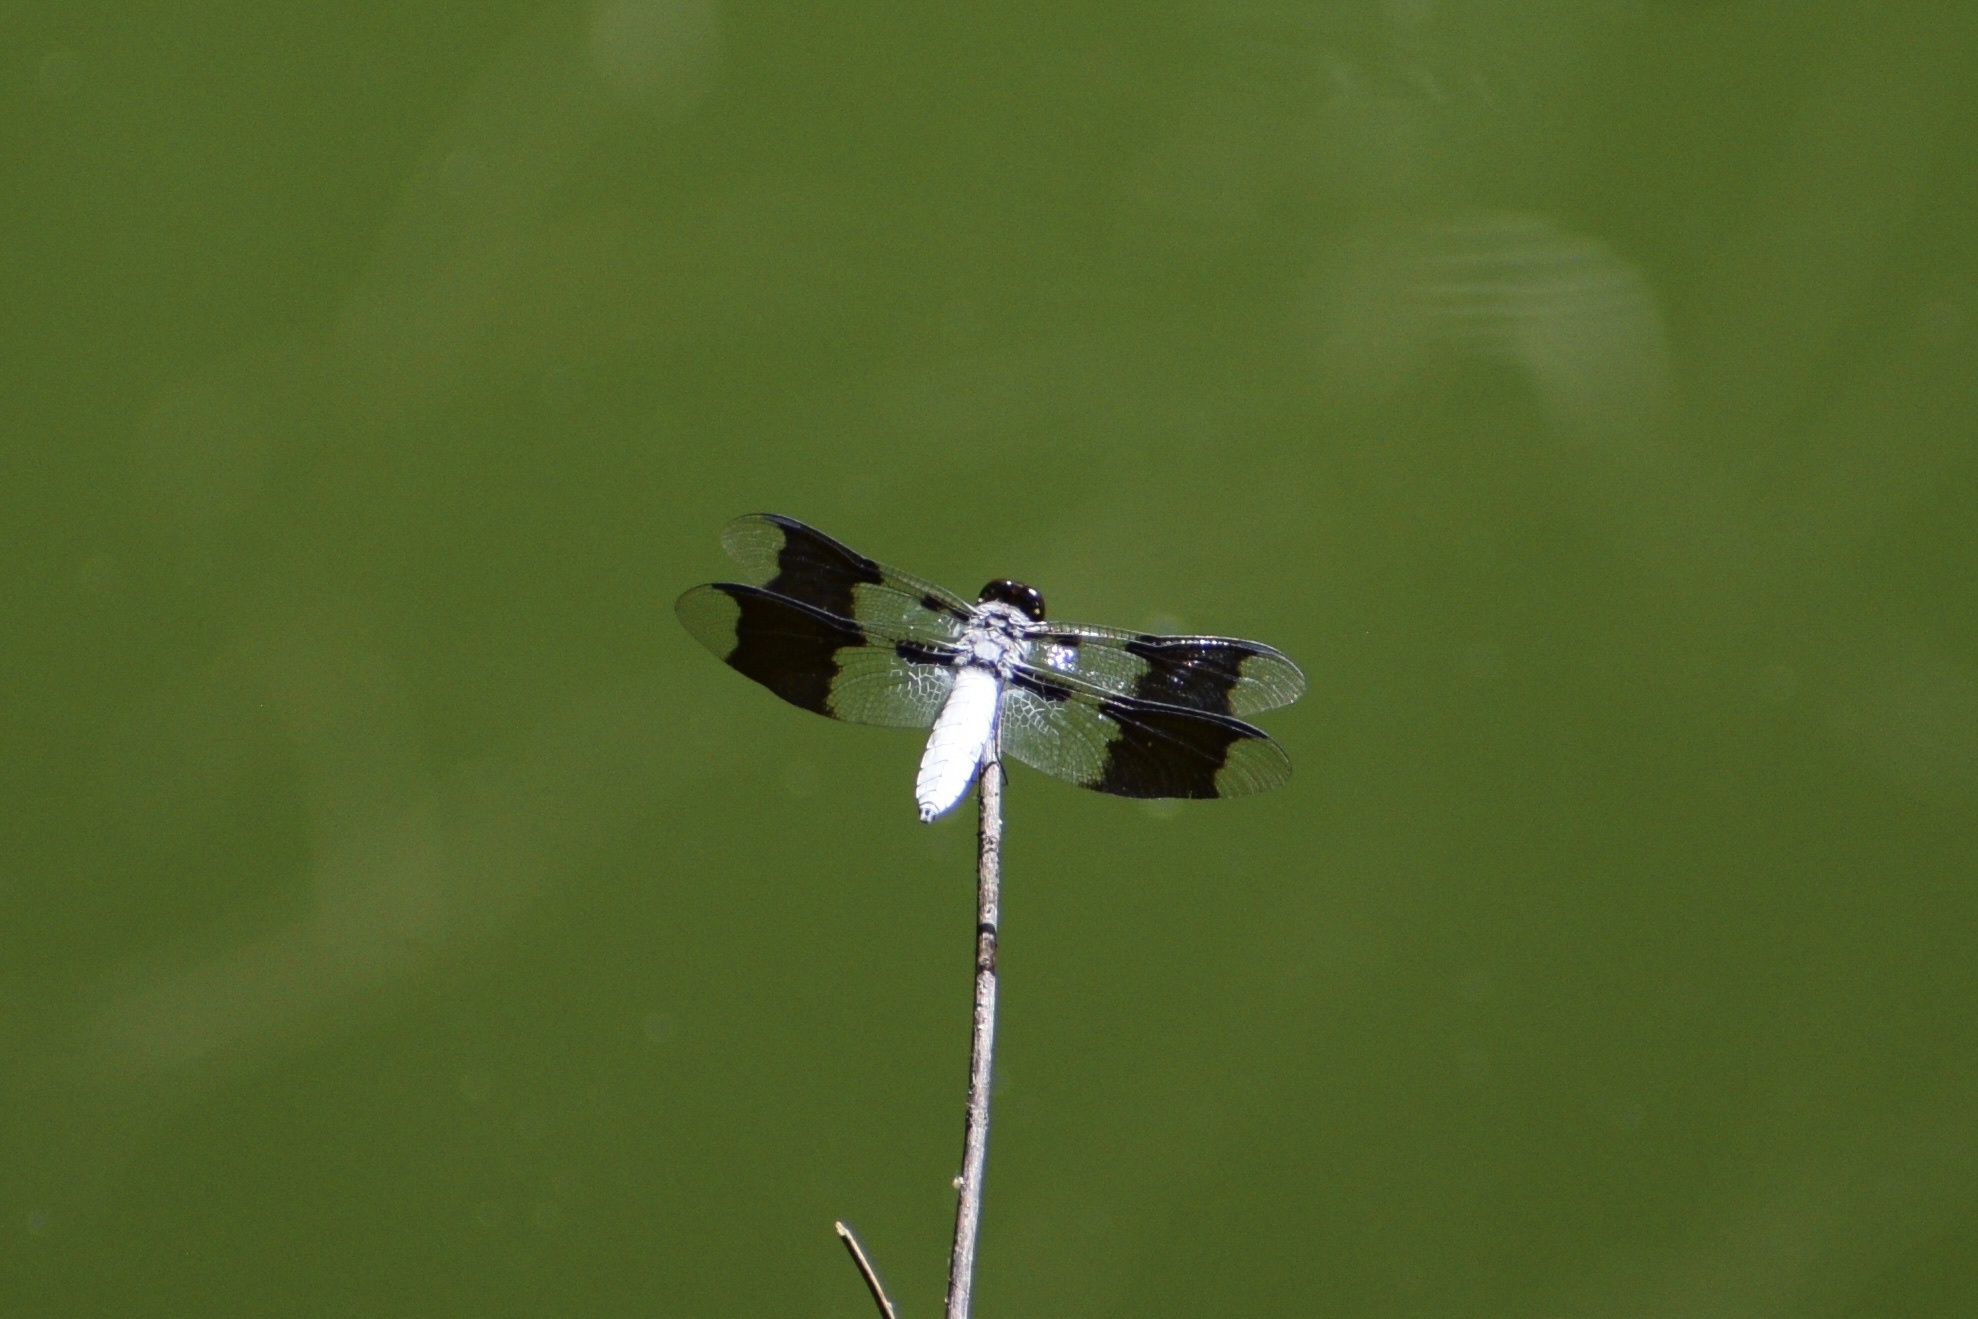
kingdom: Animalia
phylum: Arthropoda
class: Insecta
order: Odonata
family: Libellulidae
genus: Plathemis
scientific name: Plathemis lydia
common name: Common whitetail
